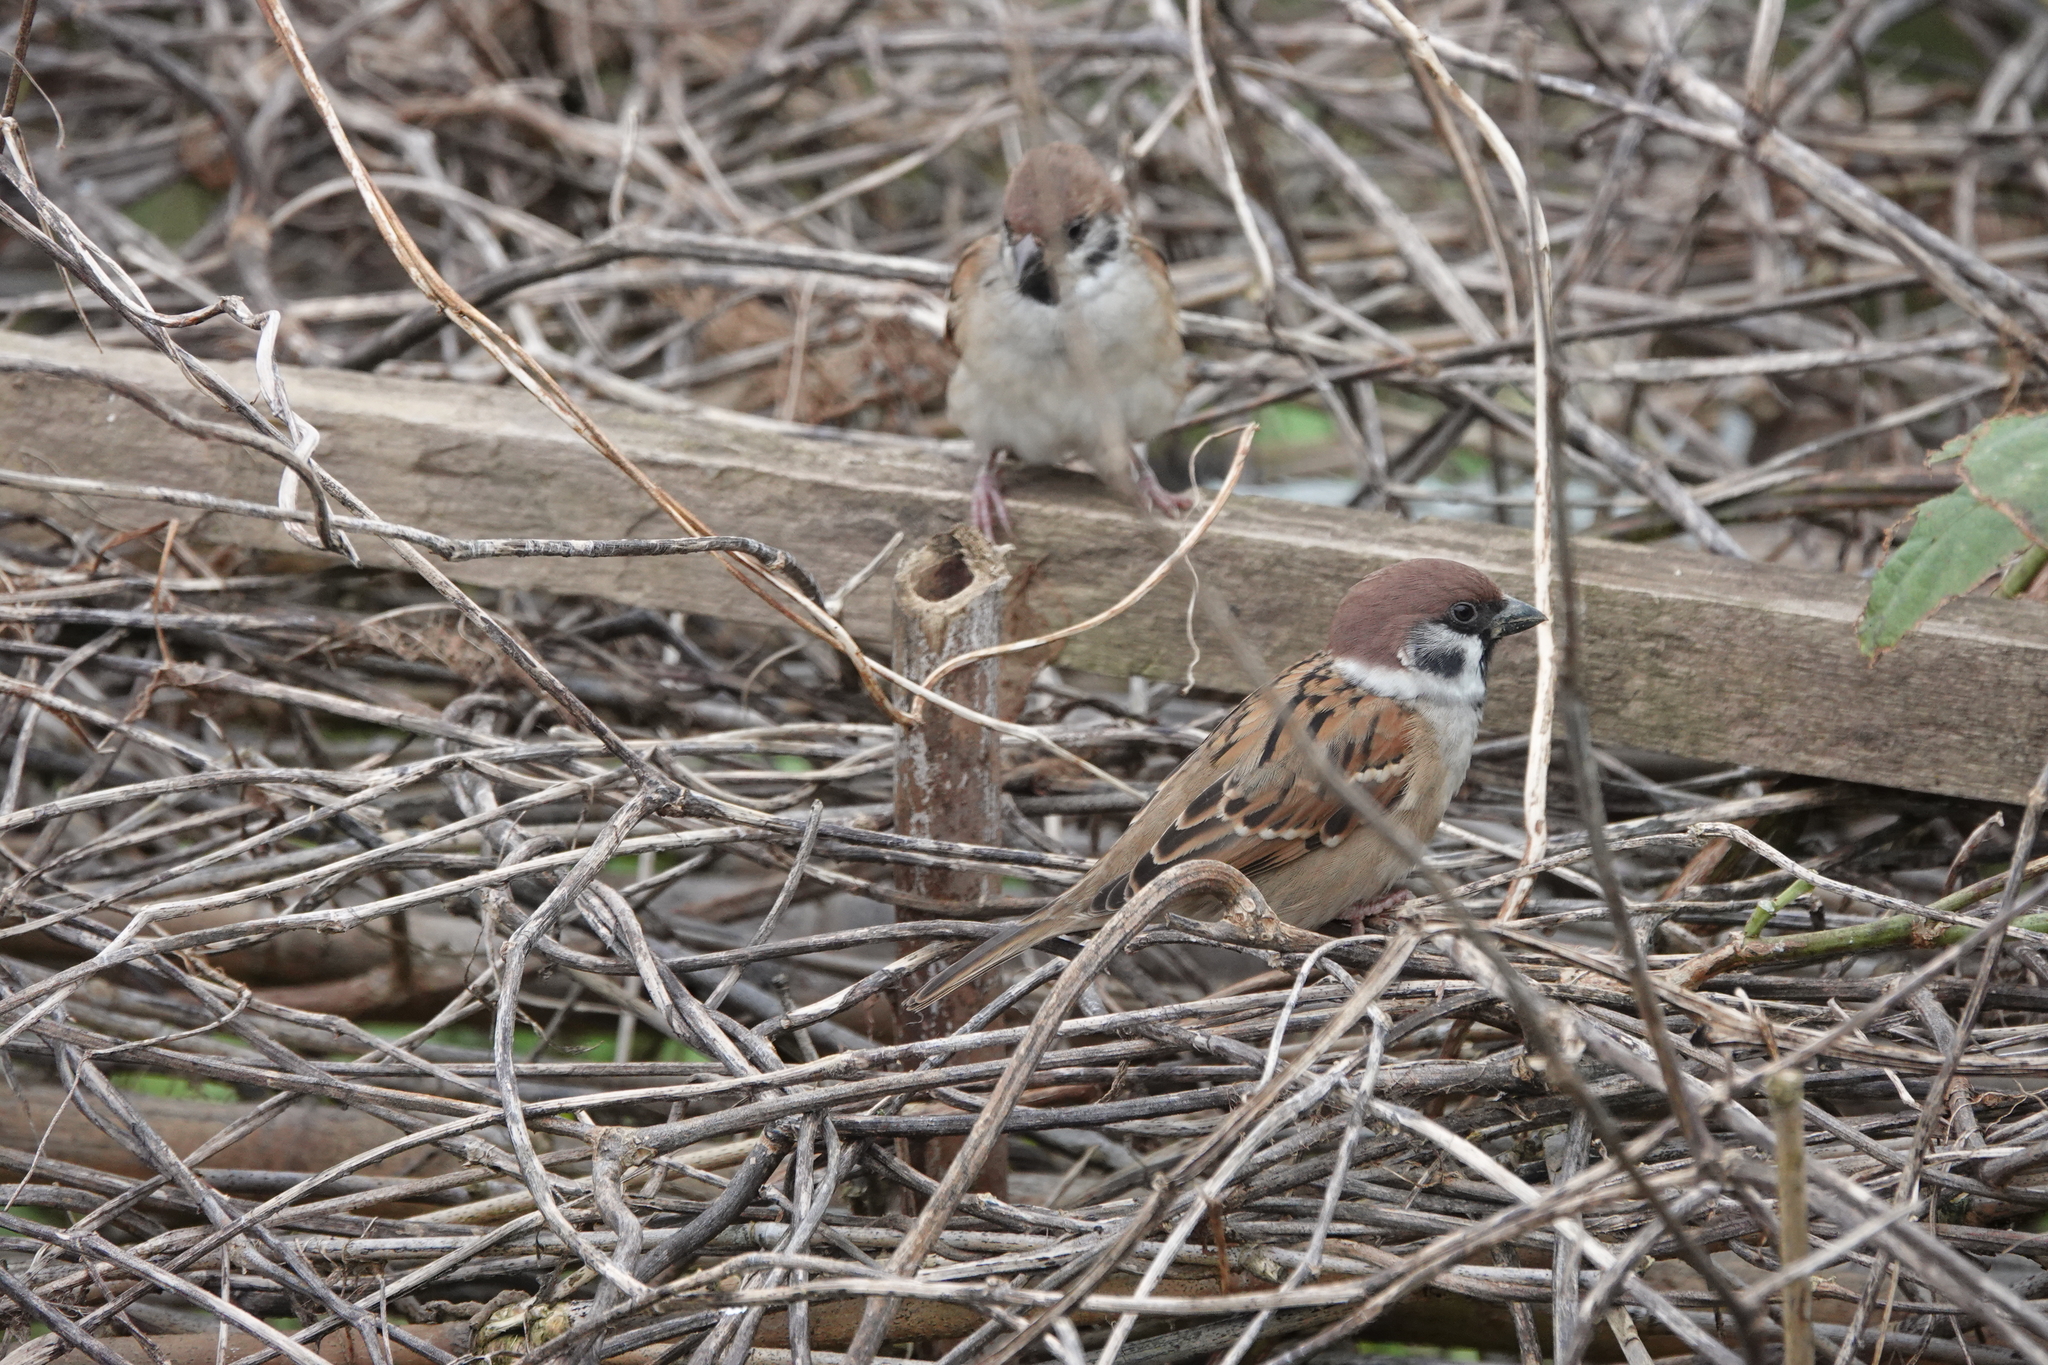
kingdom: Animalia
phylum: Chordata
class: Aves
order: Passeriformes
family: Passeridae
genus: Passer
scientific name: Passer montanus
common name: Eurasian tree sparrow
